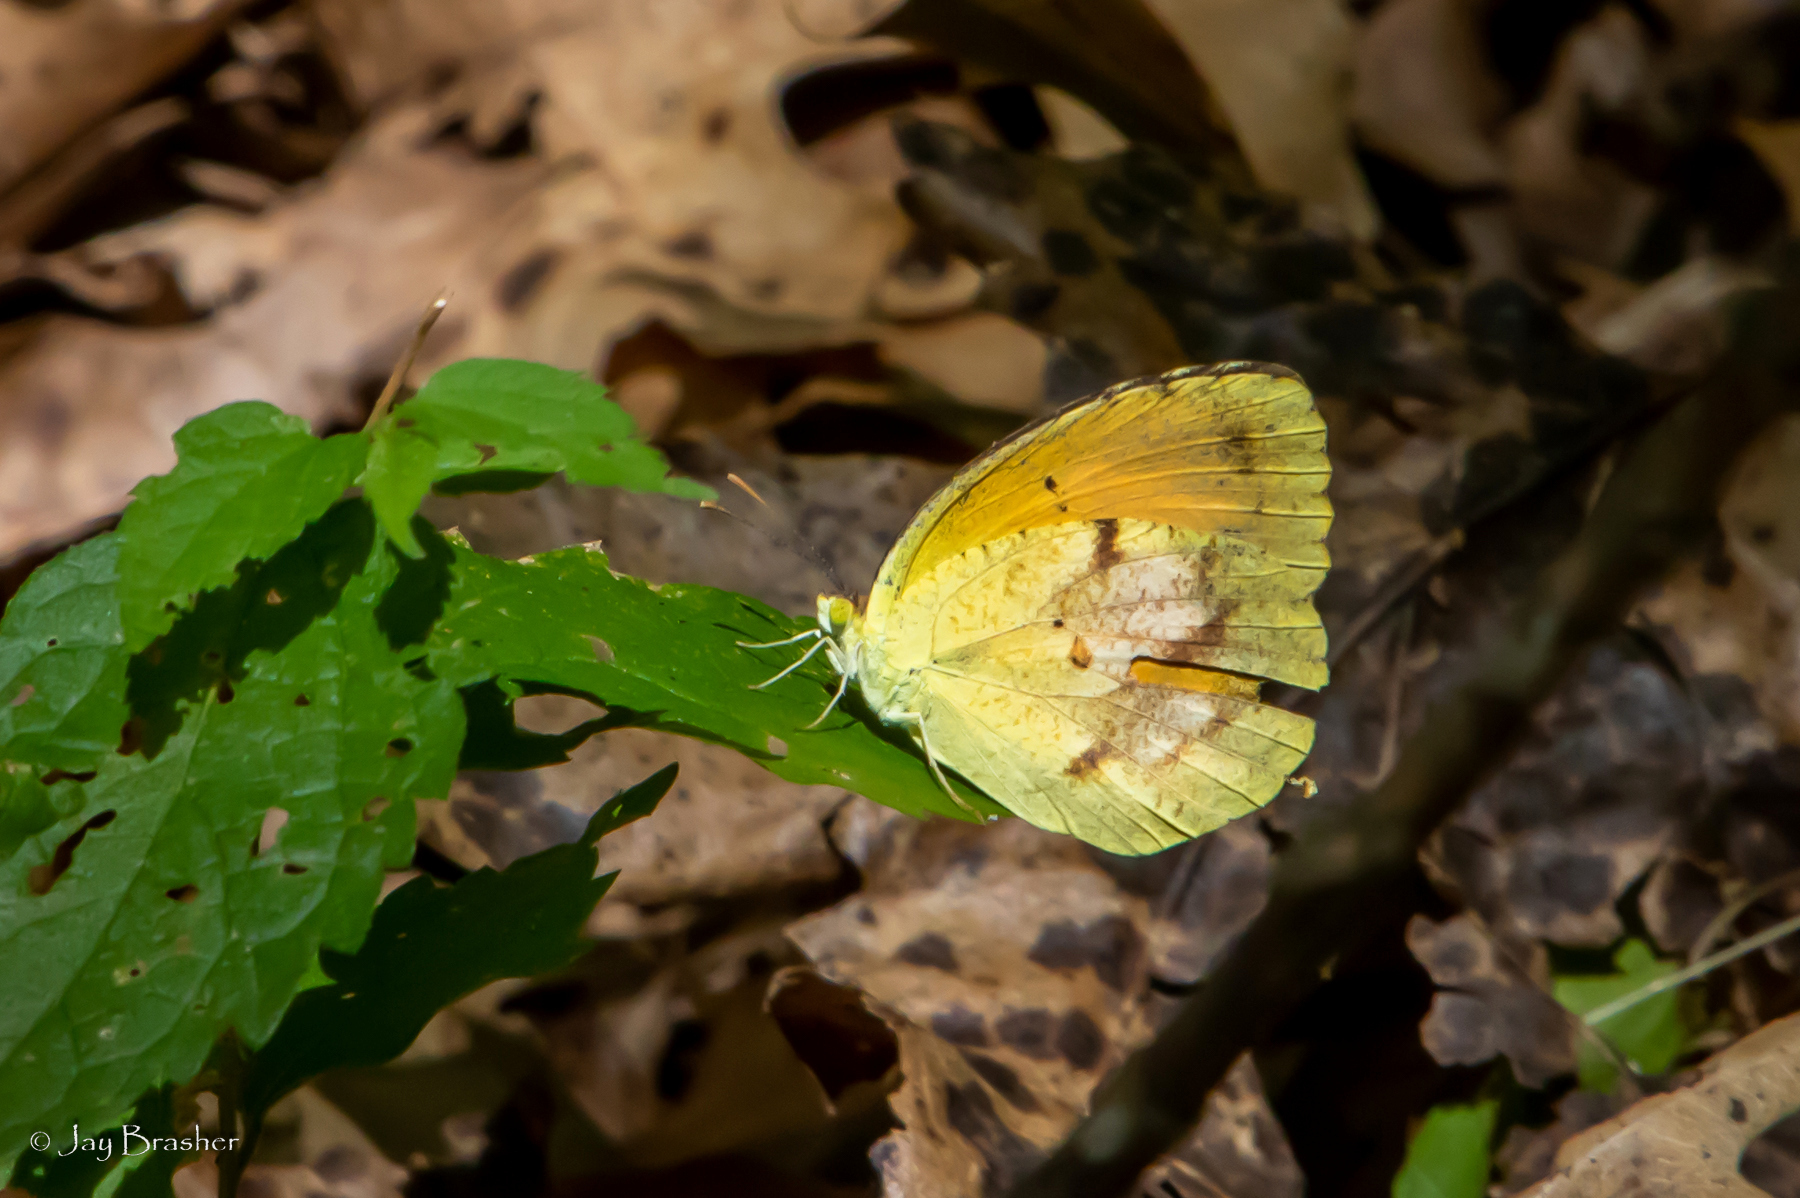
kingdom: Animalia
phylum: Arthropoda
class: Insecta
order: Lepidoptera
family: Pieridae
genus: Abaeis
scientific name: Abaeis nicippe
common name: Sleepy orange
